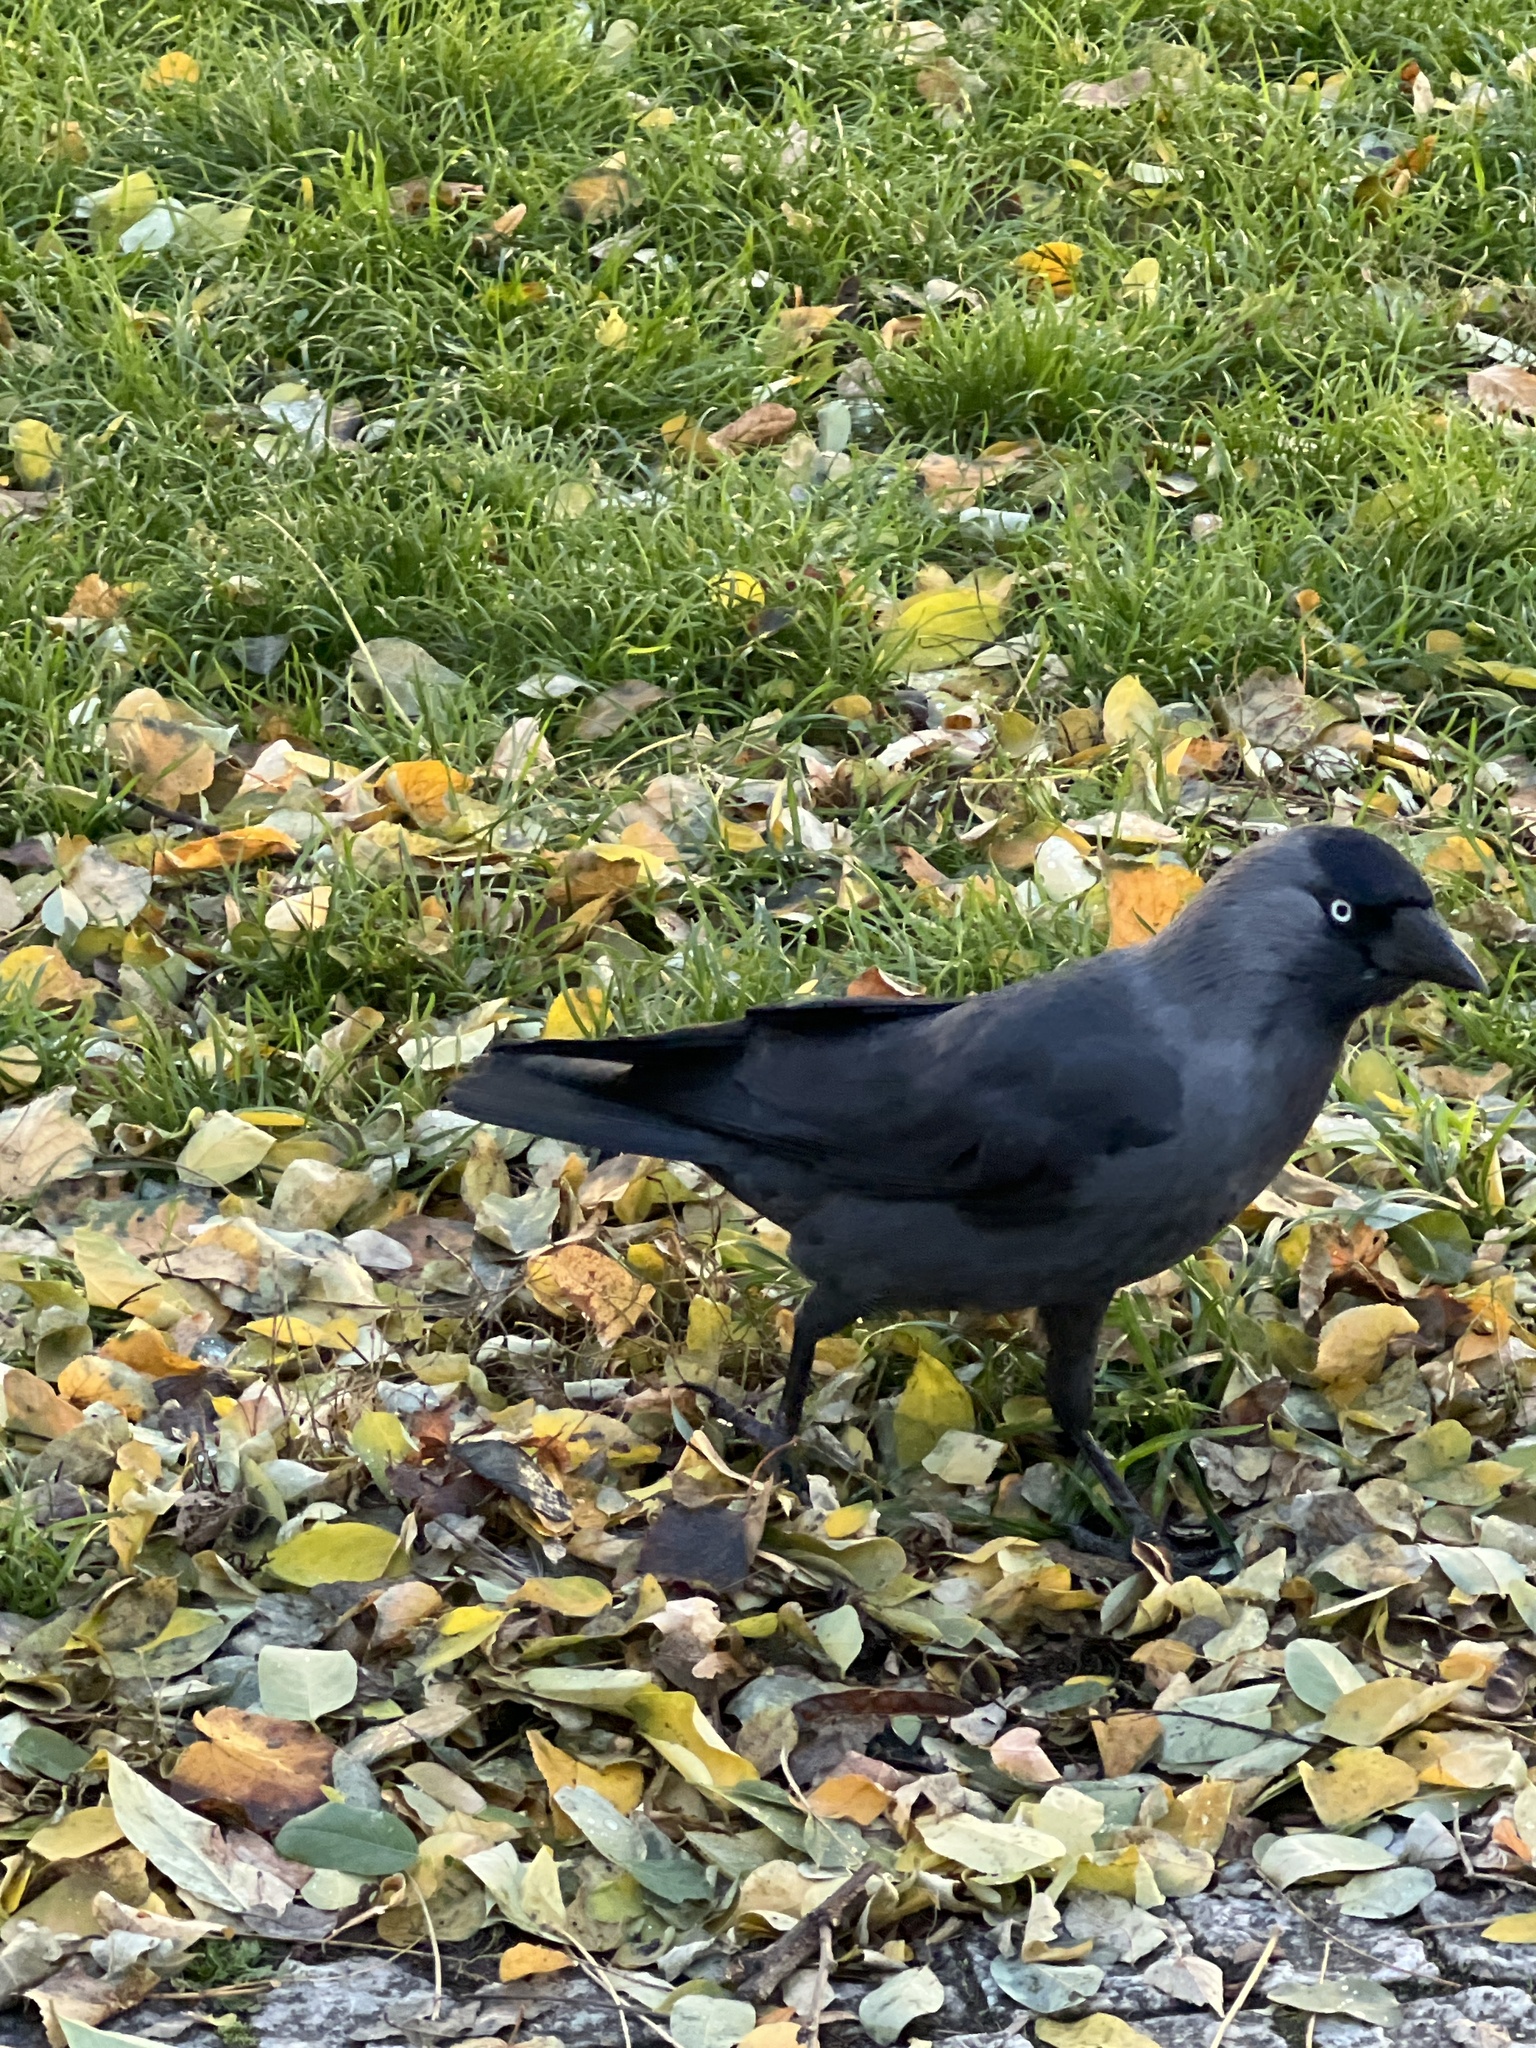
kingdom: Animalia
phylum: Chordata
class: Aves
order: Passeriformes
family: Corvidae
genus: Coloeus
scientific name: Coloeus monedula
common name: Western jackdaw
